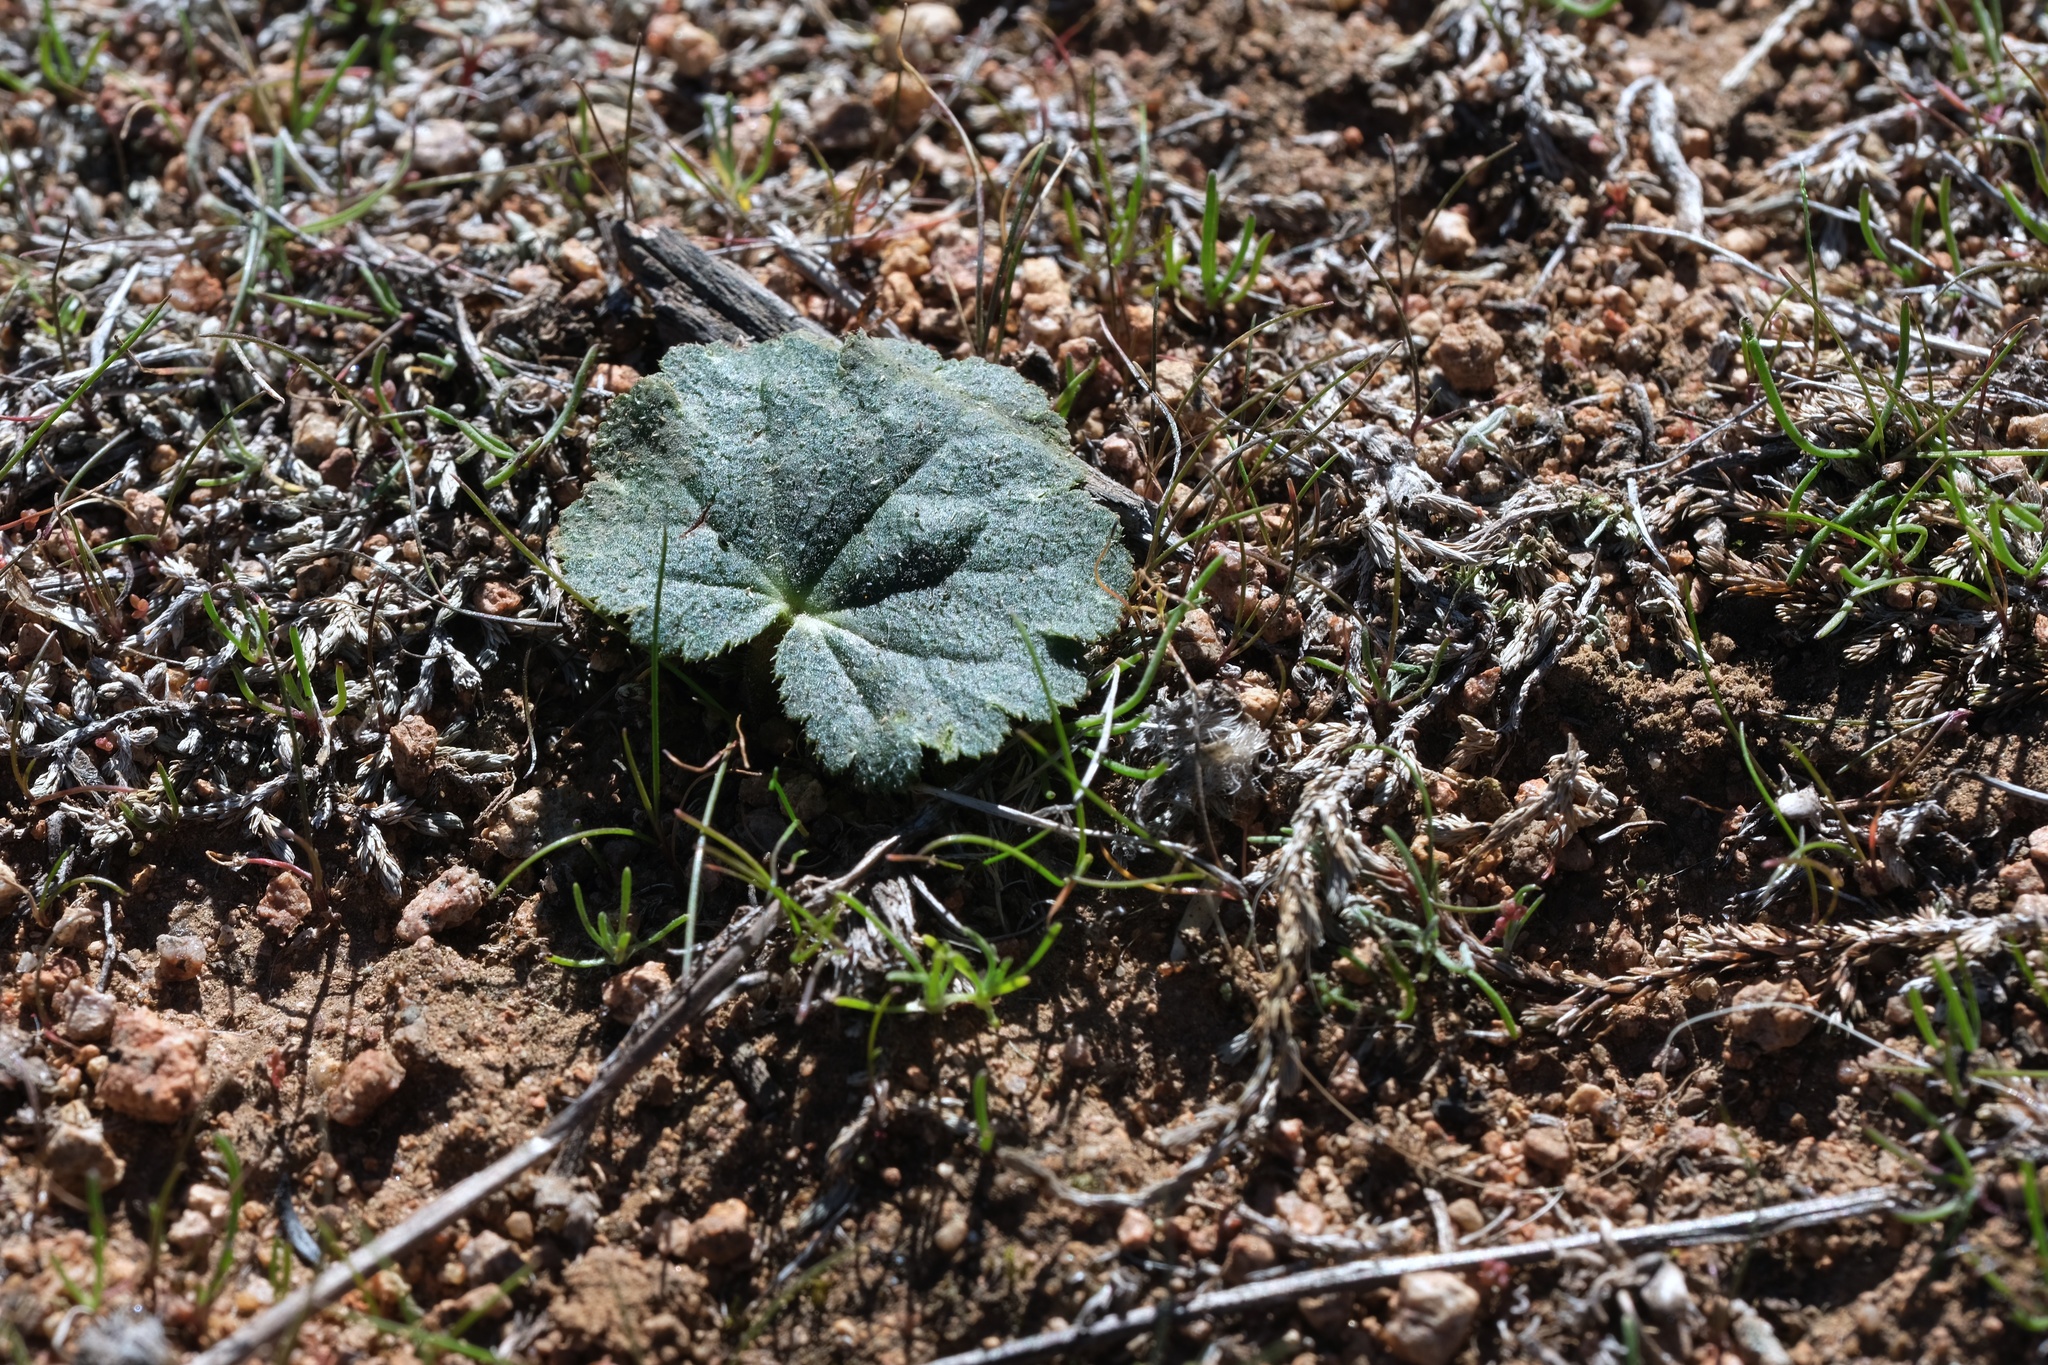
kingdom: Plantae
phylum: Tracheophyta
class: Magnoliopsida
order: Saxifragales
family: Saxifragaceae
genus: Jepsonia
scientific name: Jepsonia parryi
